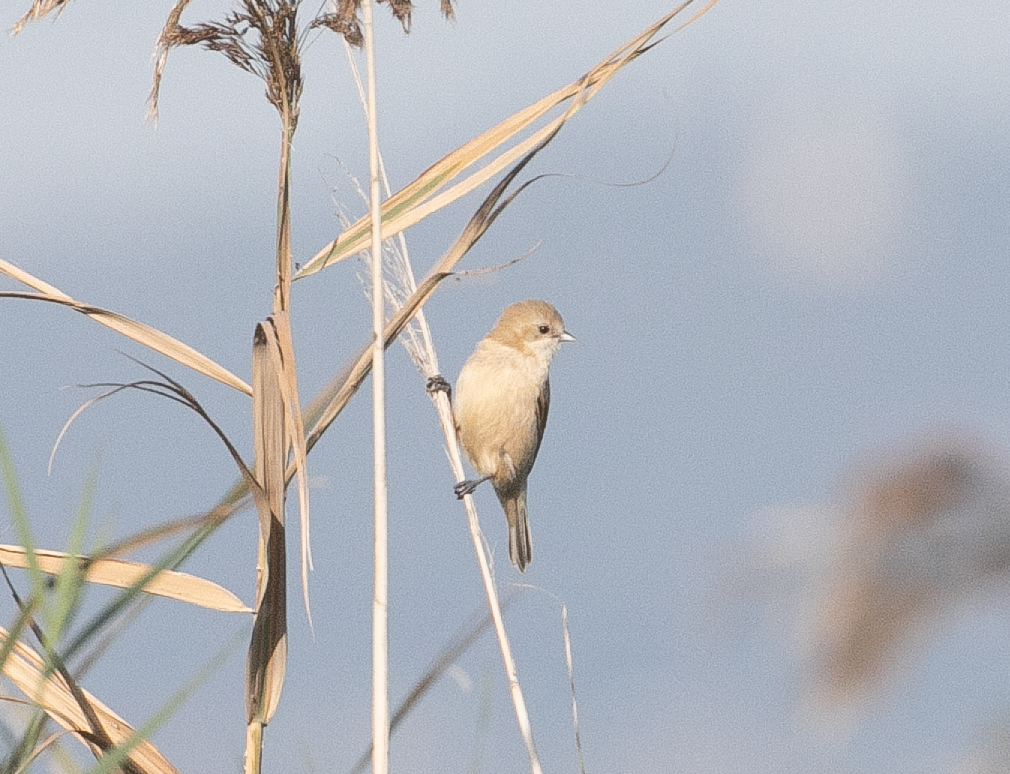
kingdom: Animalia
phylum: Chordata
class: Aves
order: Passeriformes
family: Remizidae
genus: Remiz
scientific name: Remiz pendulinus
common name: Eurasian penduline tit
